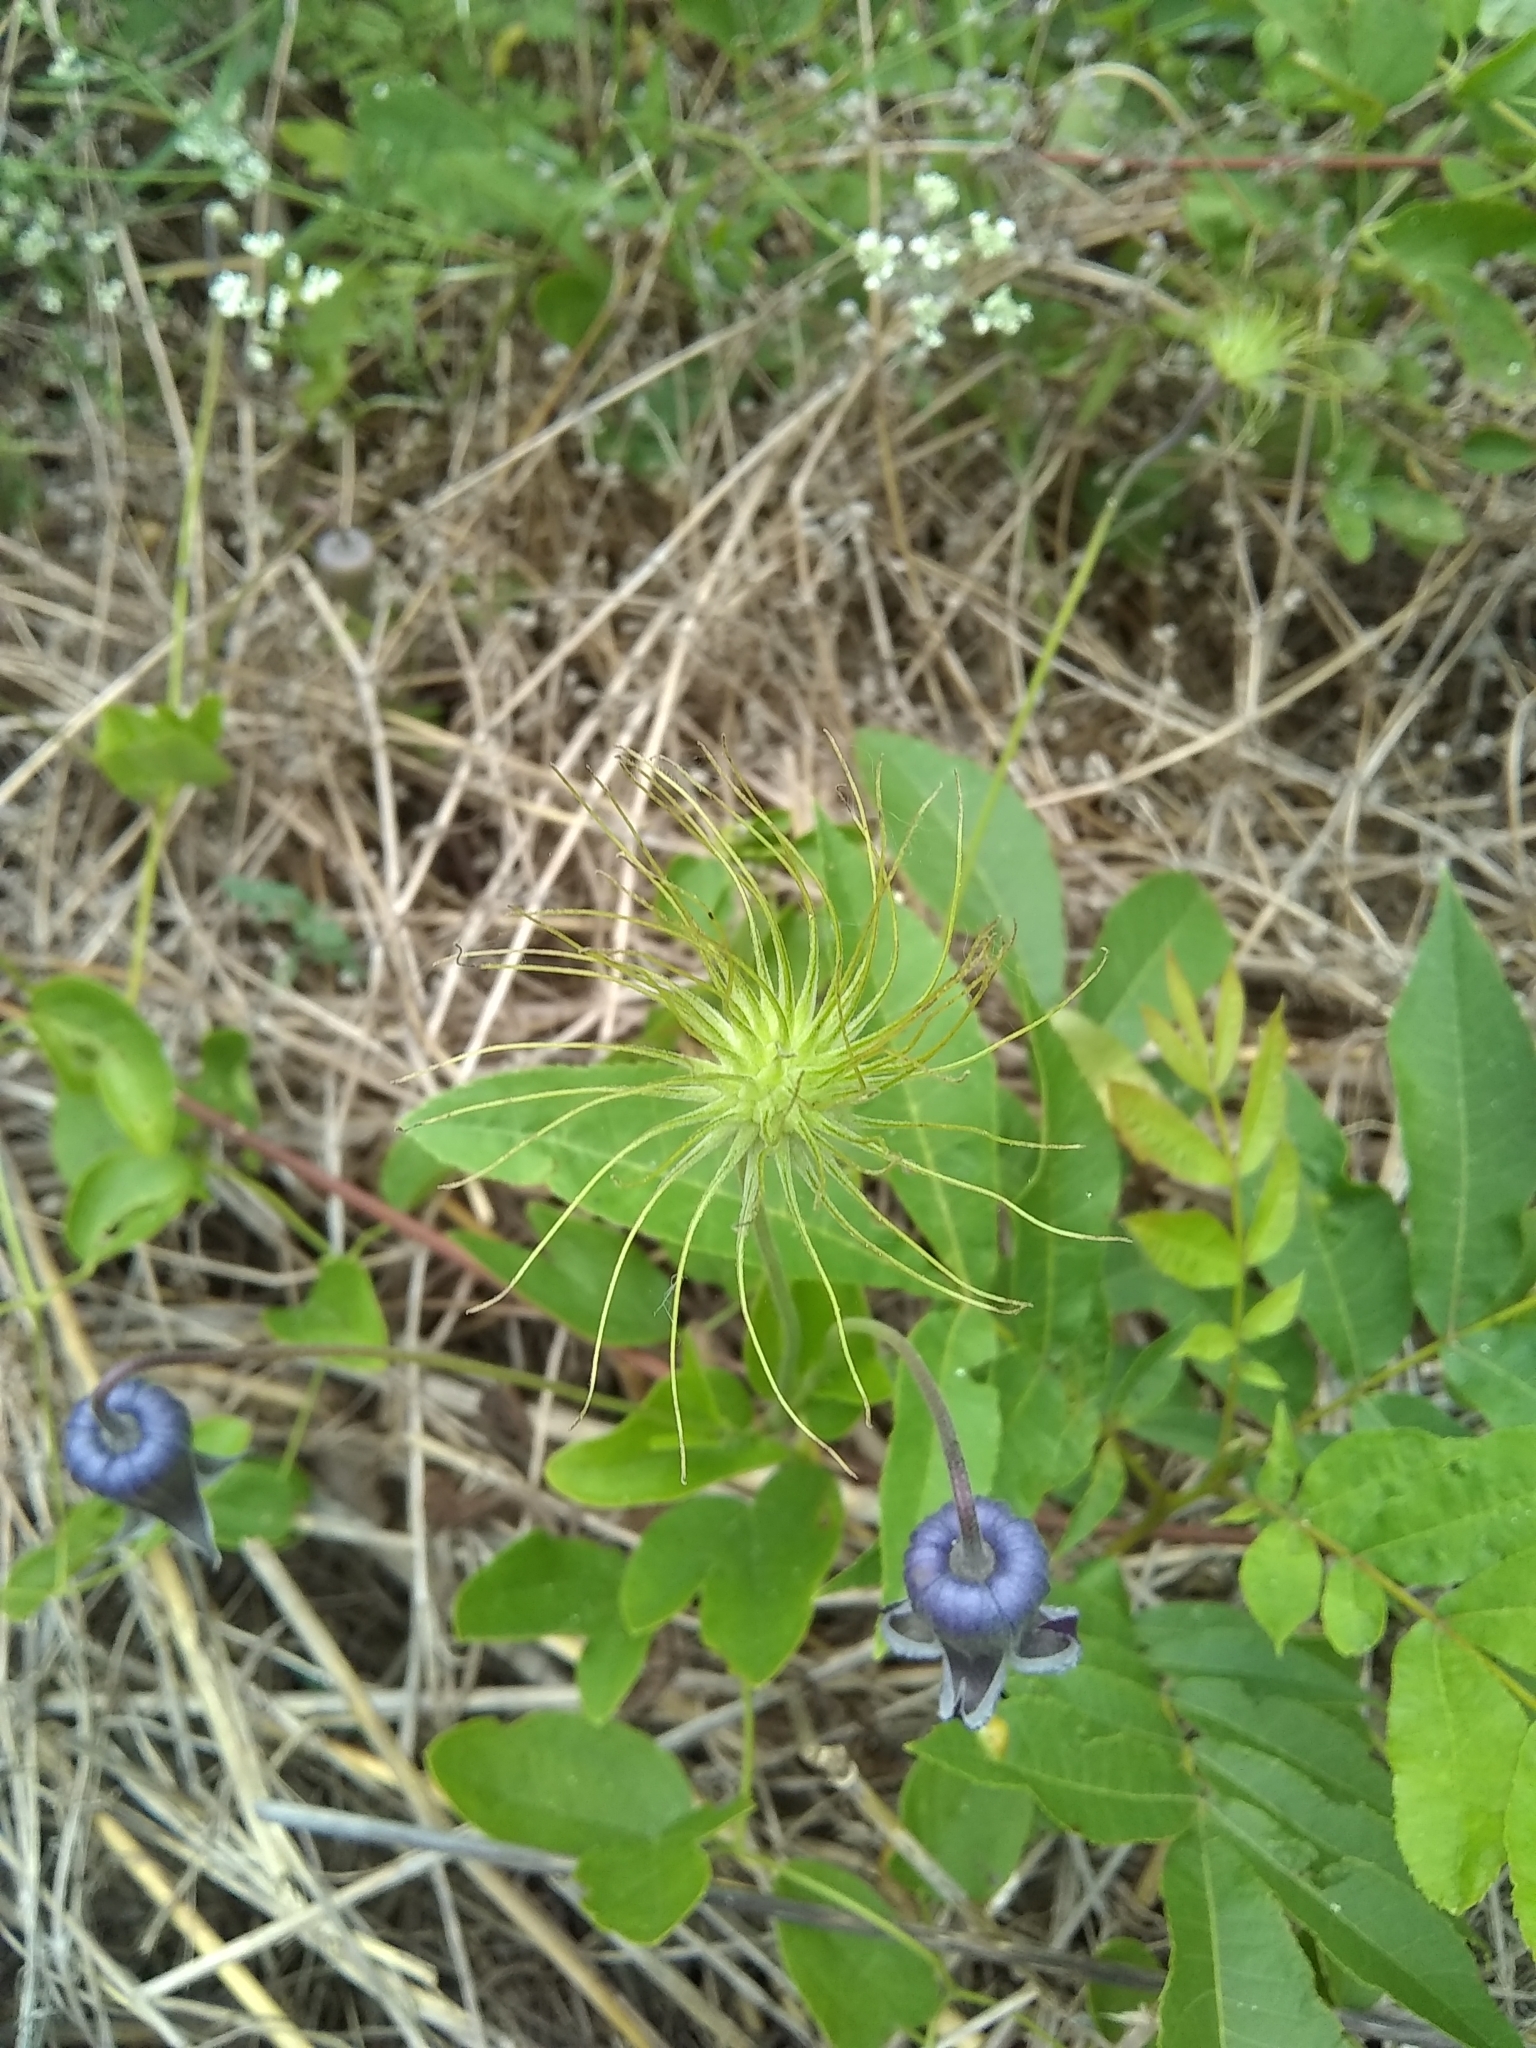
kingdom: Plantae
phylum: Tracheophyta
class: Magnoliopsida
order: Ranunculales
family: Ranunculaceae
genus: Clematis
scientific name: Clematis pitcheri
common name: Bellflower clematis
